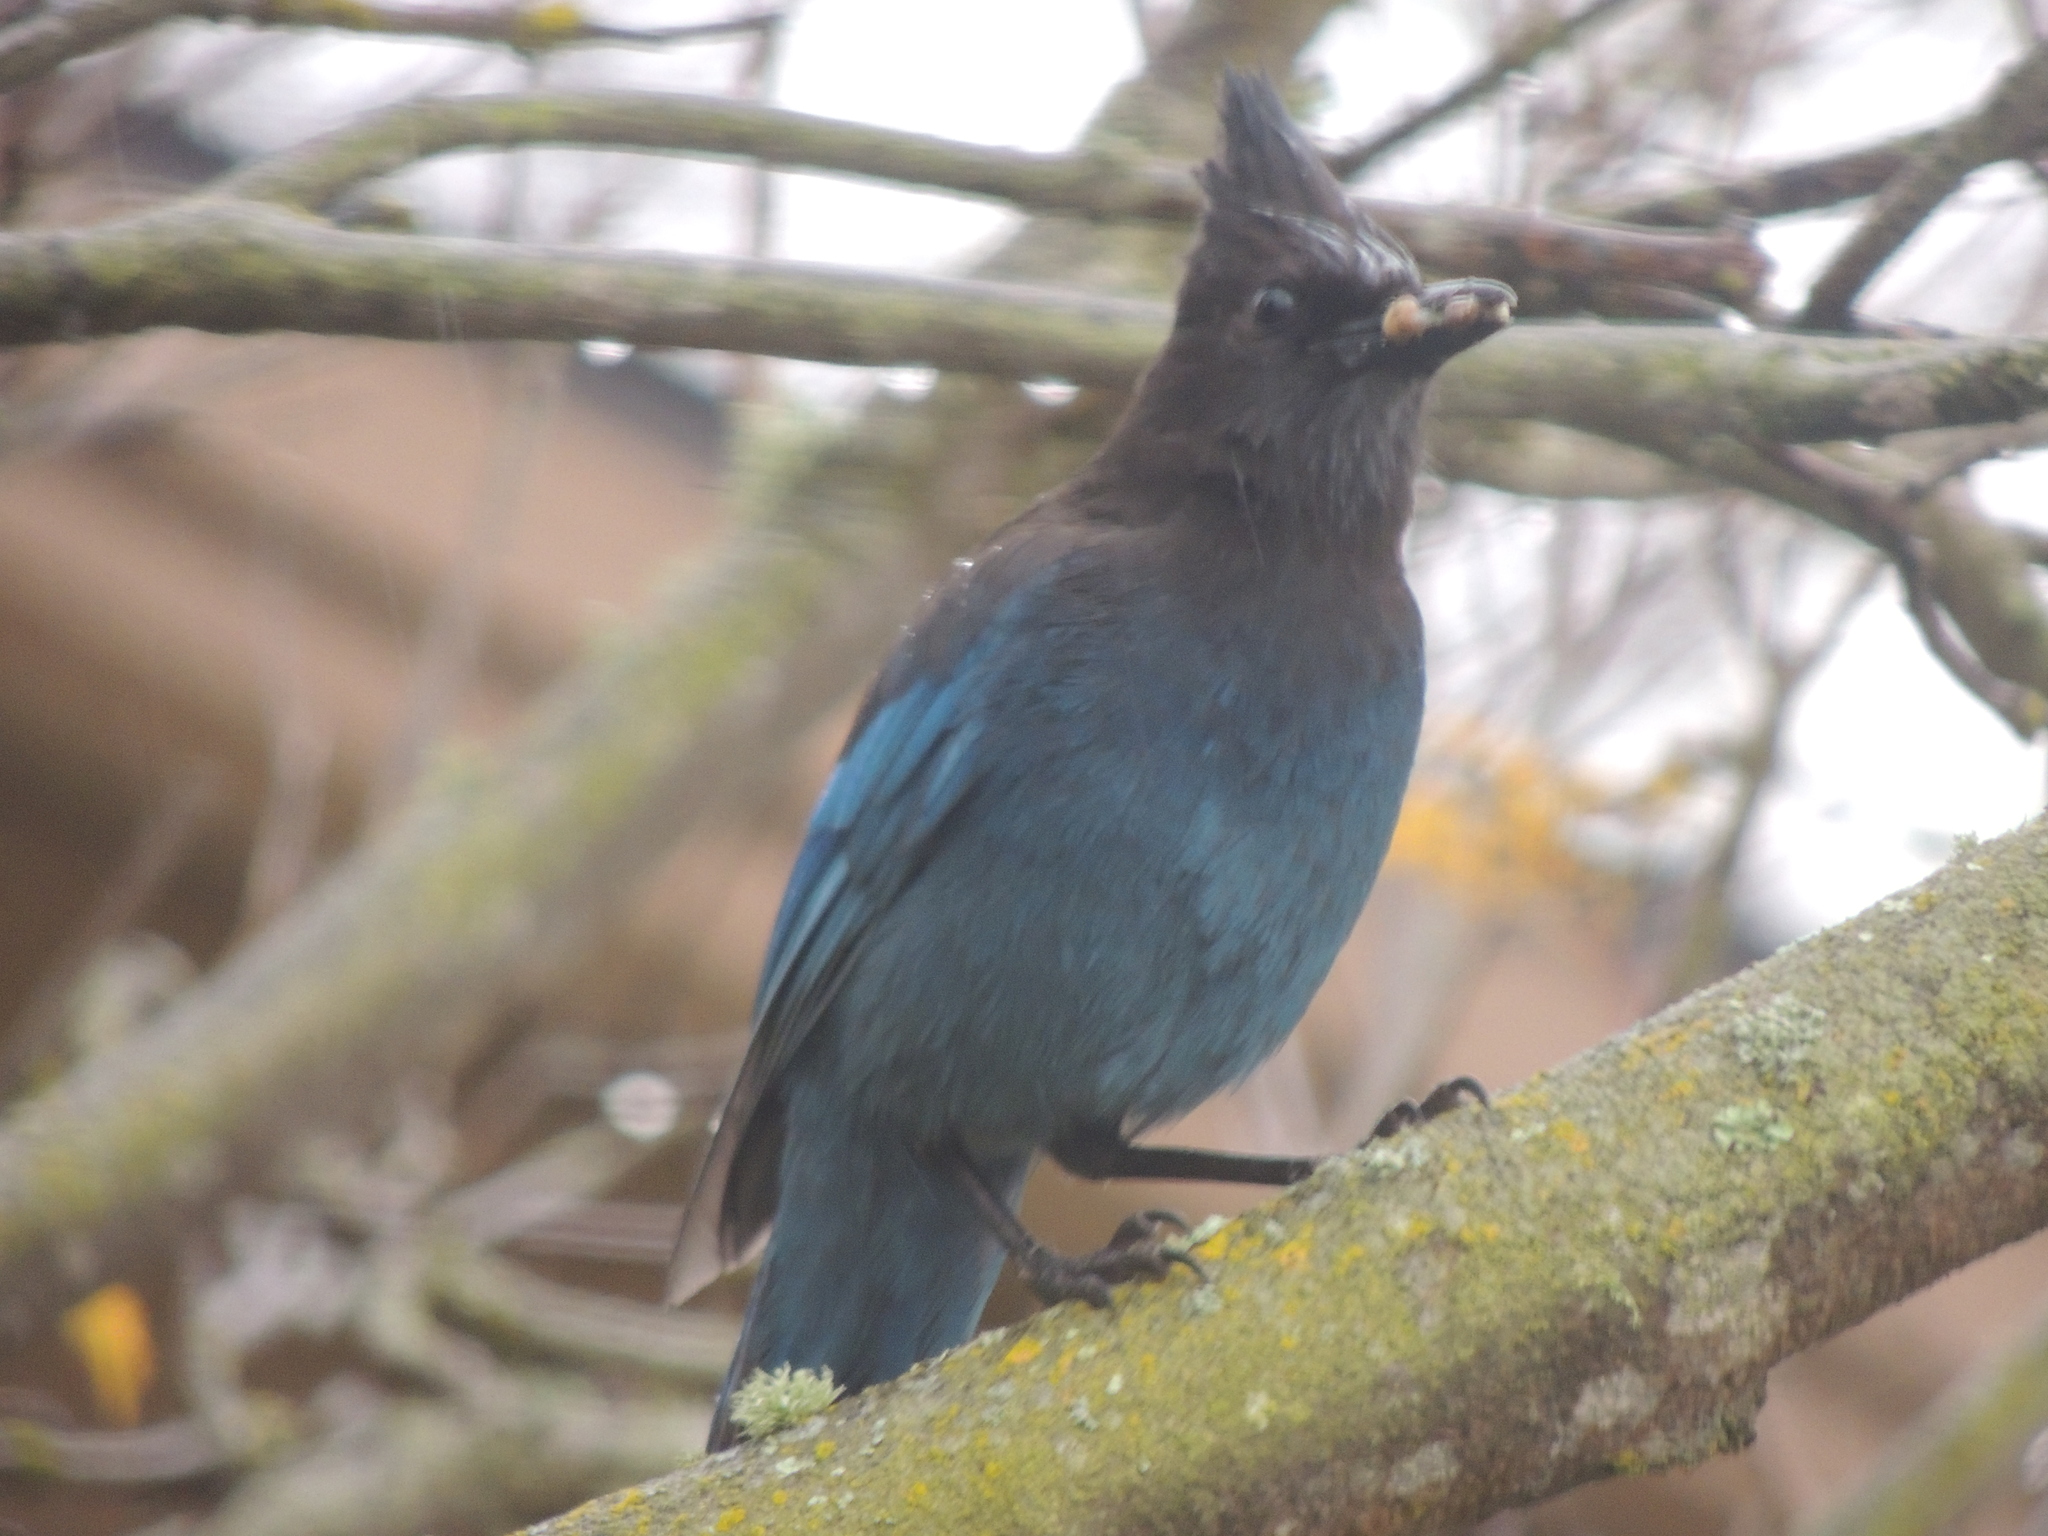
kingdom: Animalia
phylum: Chordata
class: Aves
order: Passeriformes
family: Corvidae
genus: Cyanocitta
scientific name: Cyanocitta stelleri
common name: Steller's jay
